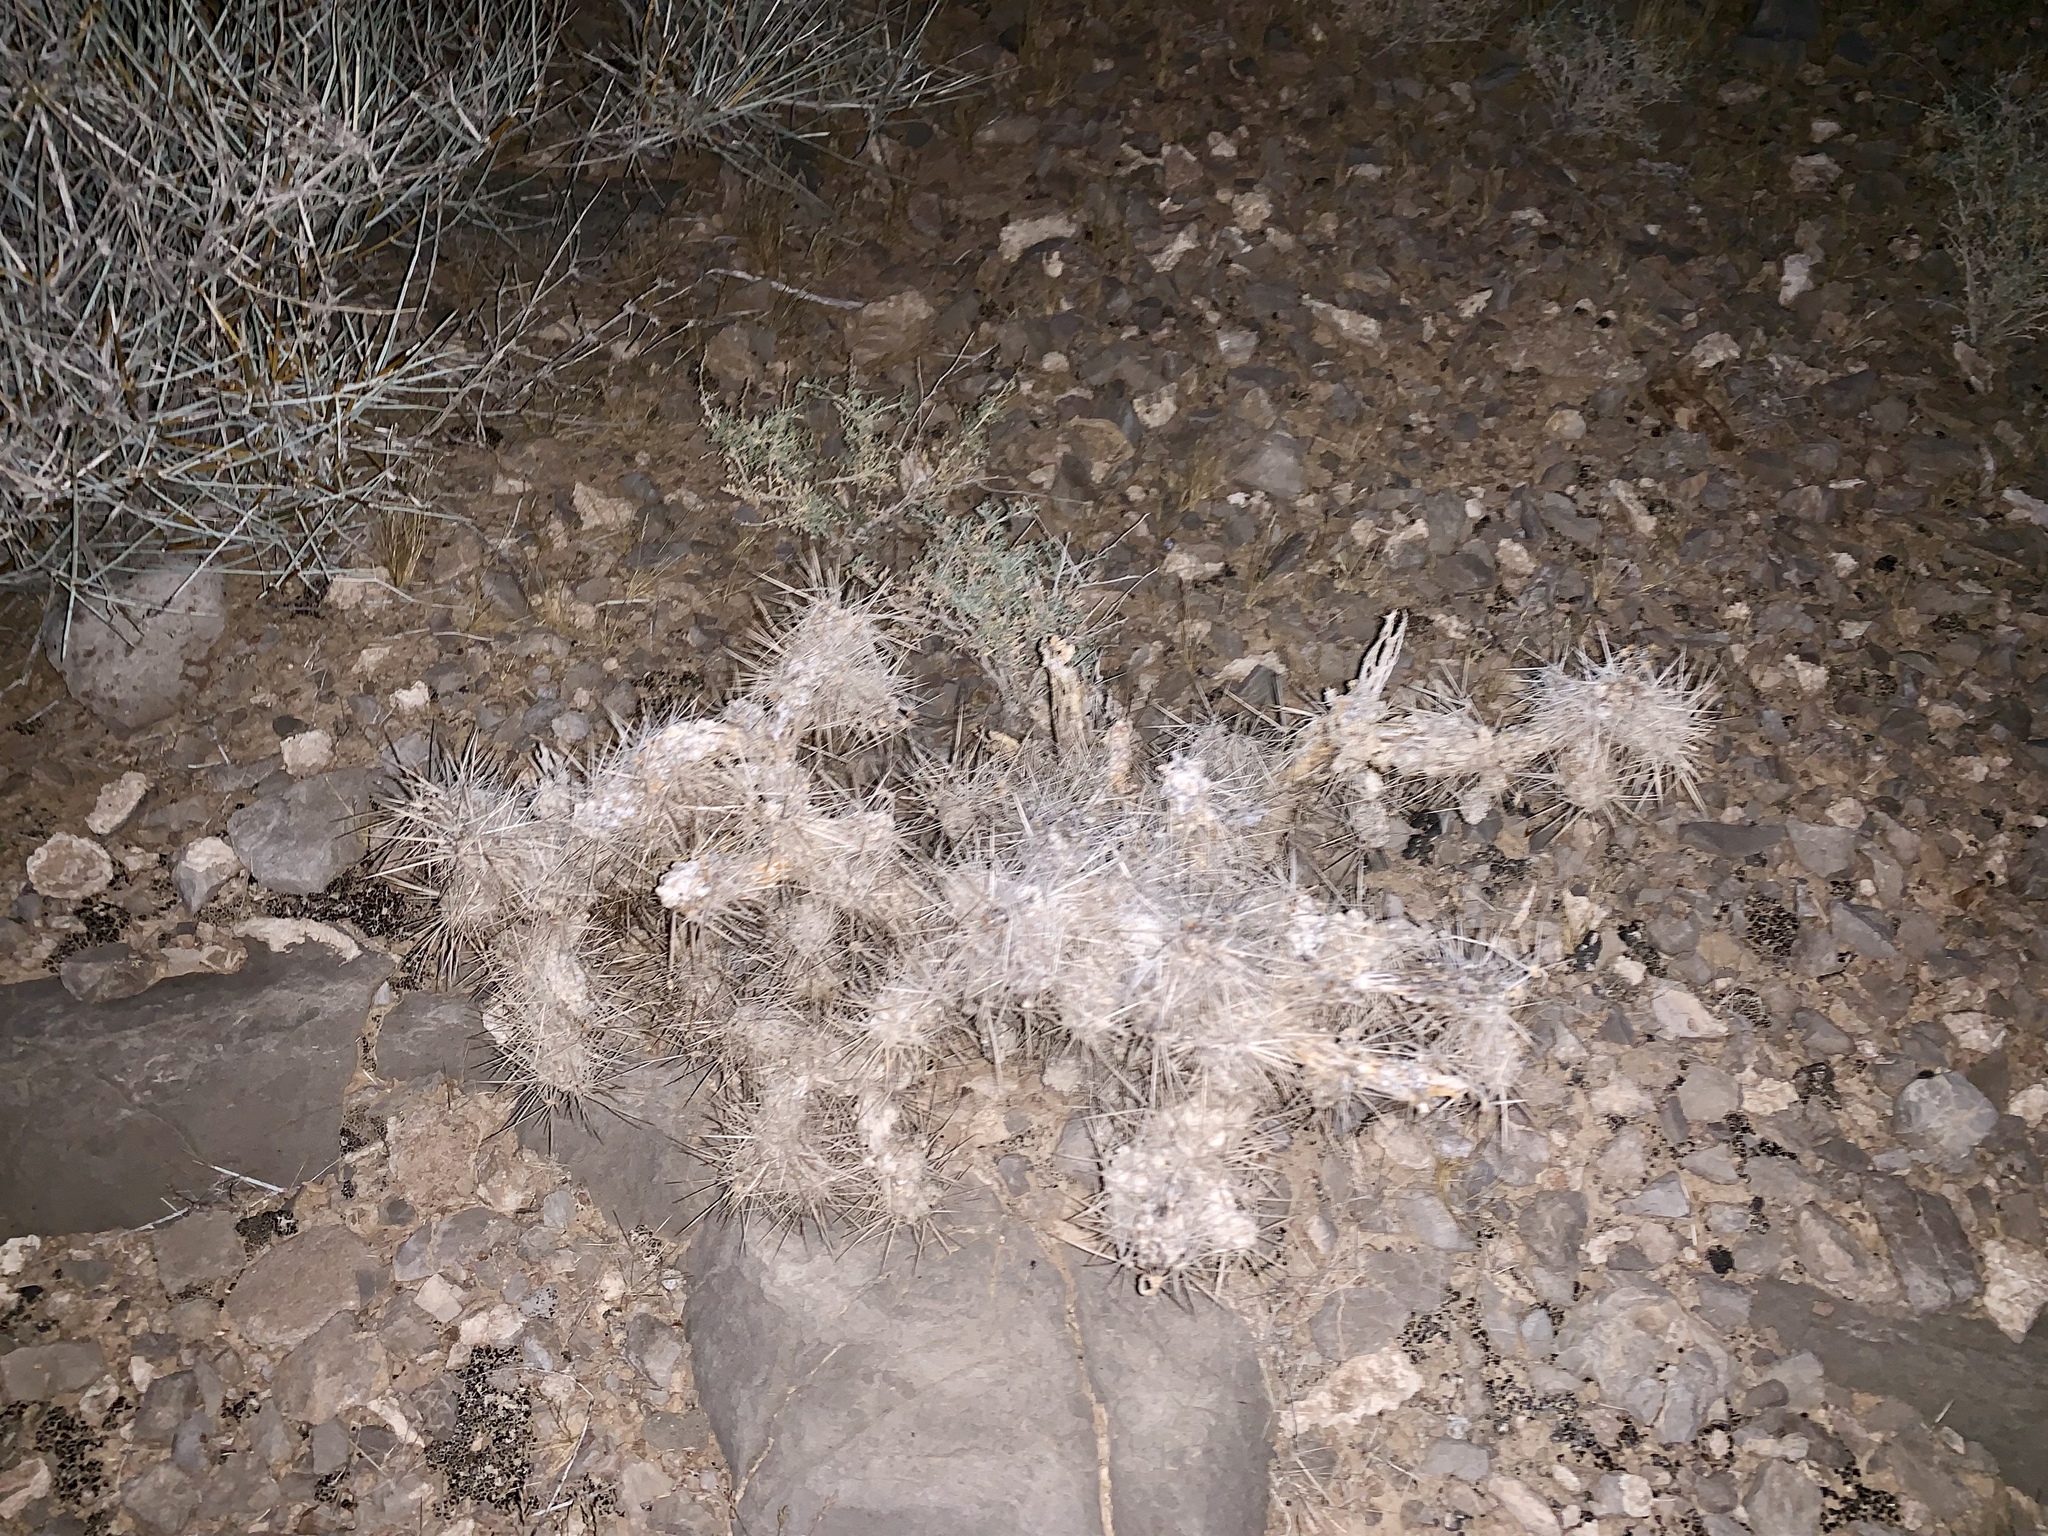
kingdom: Plantae
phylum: Tracheophyta
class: Magnoliopsida
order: Caryophyllales
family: Cactaceae
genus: Cylindropuntia
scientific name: Cylindropuntia echinocarpa
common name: Ground cholla
